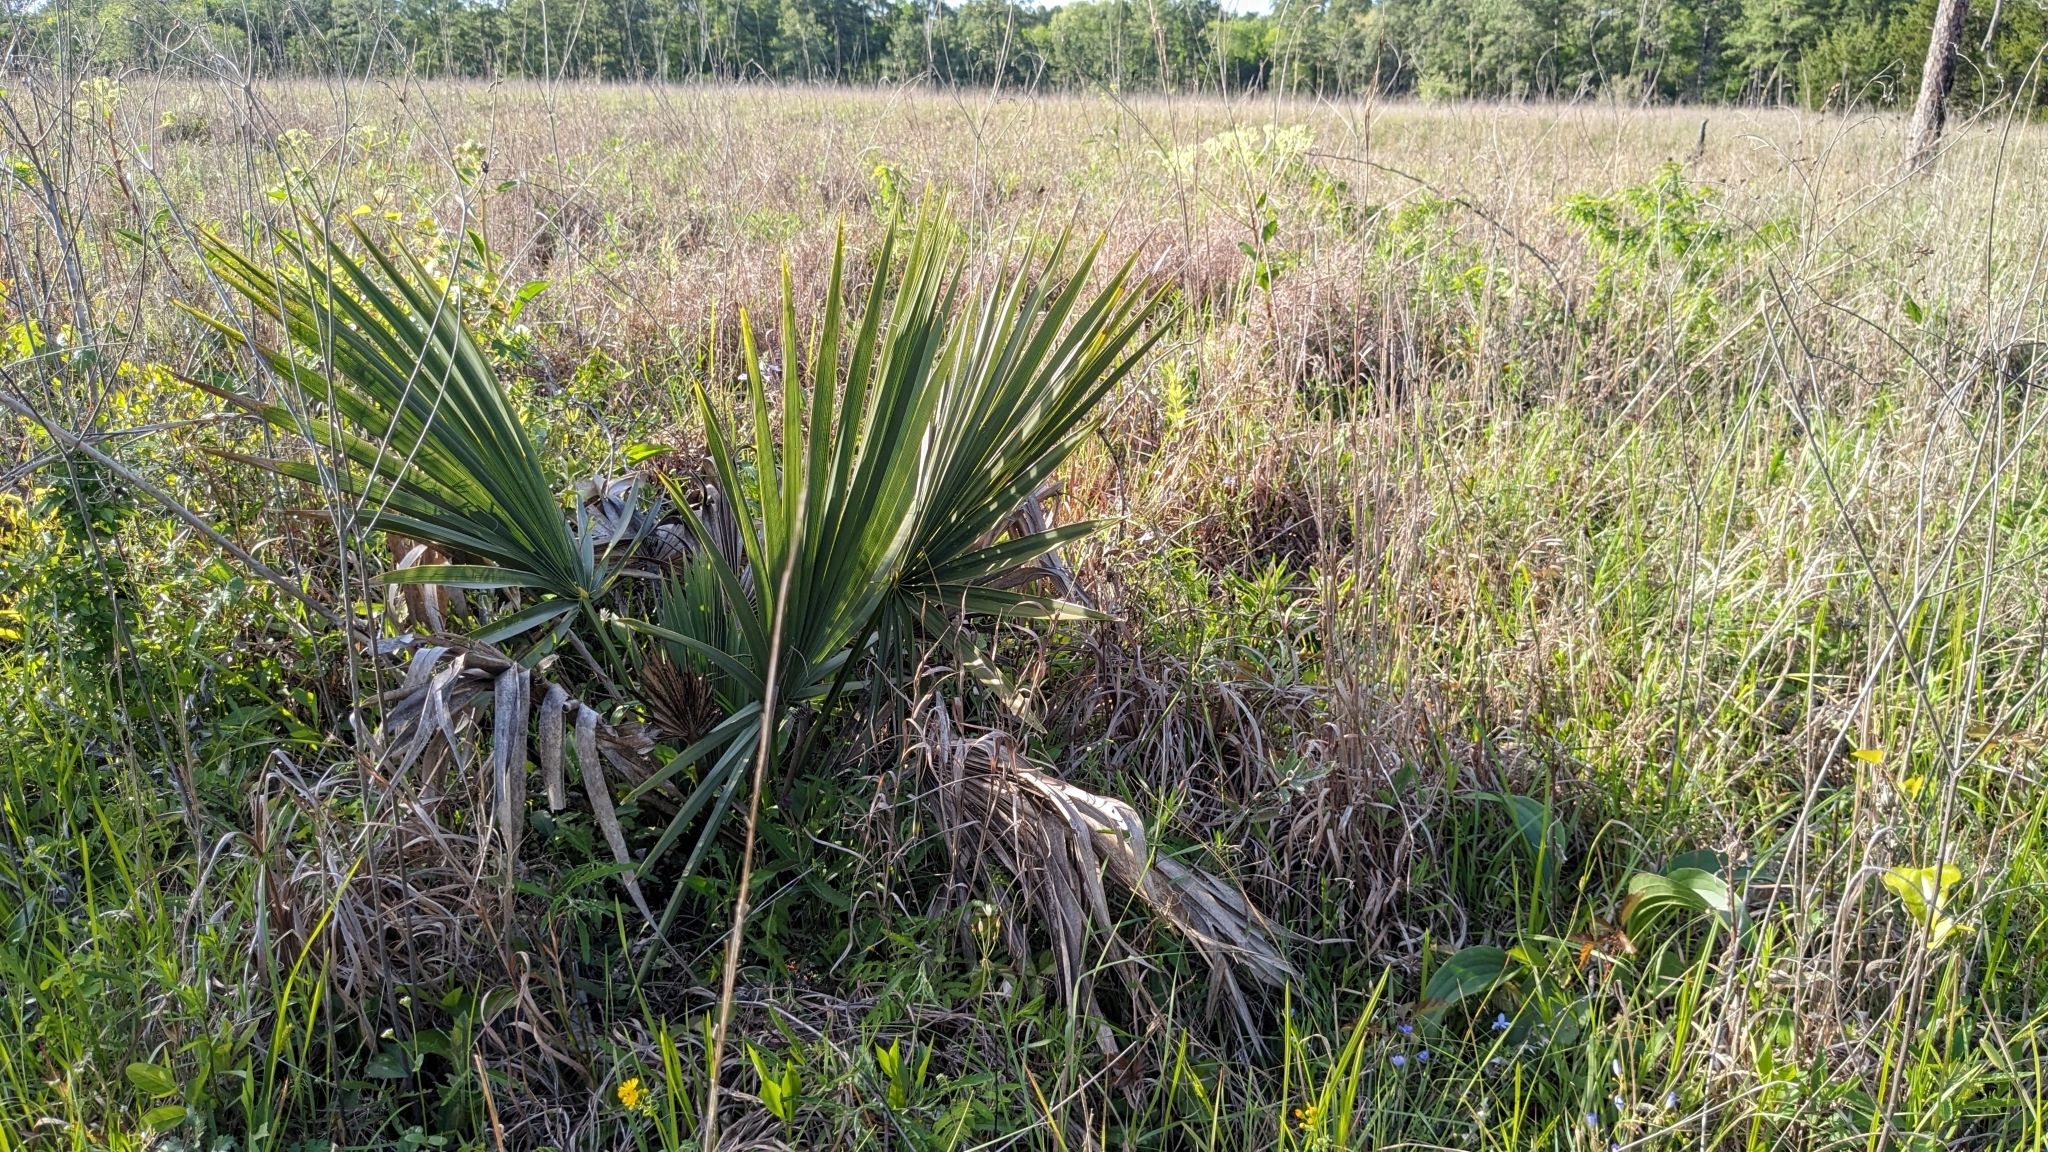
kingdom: Plantae
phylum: Tracheophyta
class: Liliopsida
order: Arecales
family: Arecaceae
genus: Sabal
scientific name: Sabal minor
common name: Dwarf palmetto
